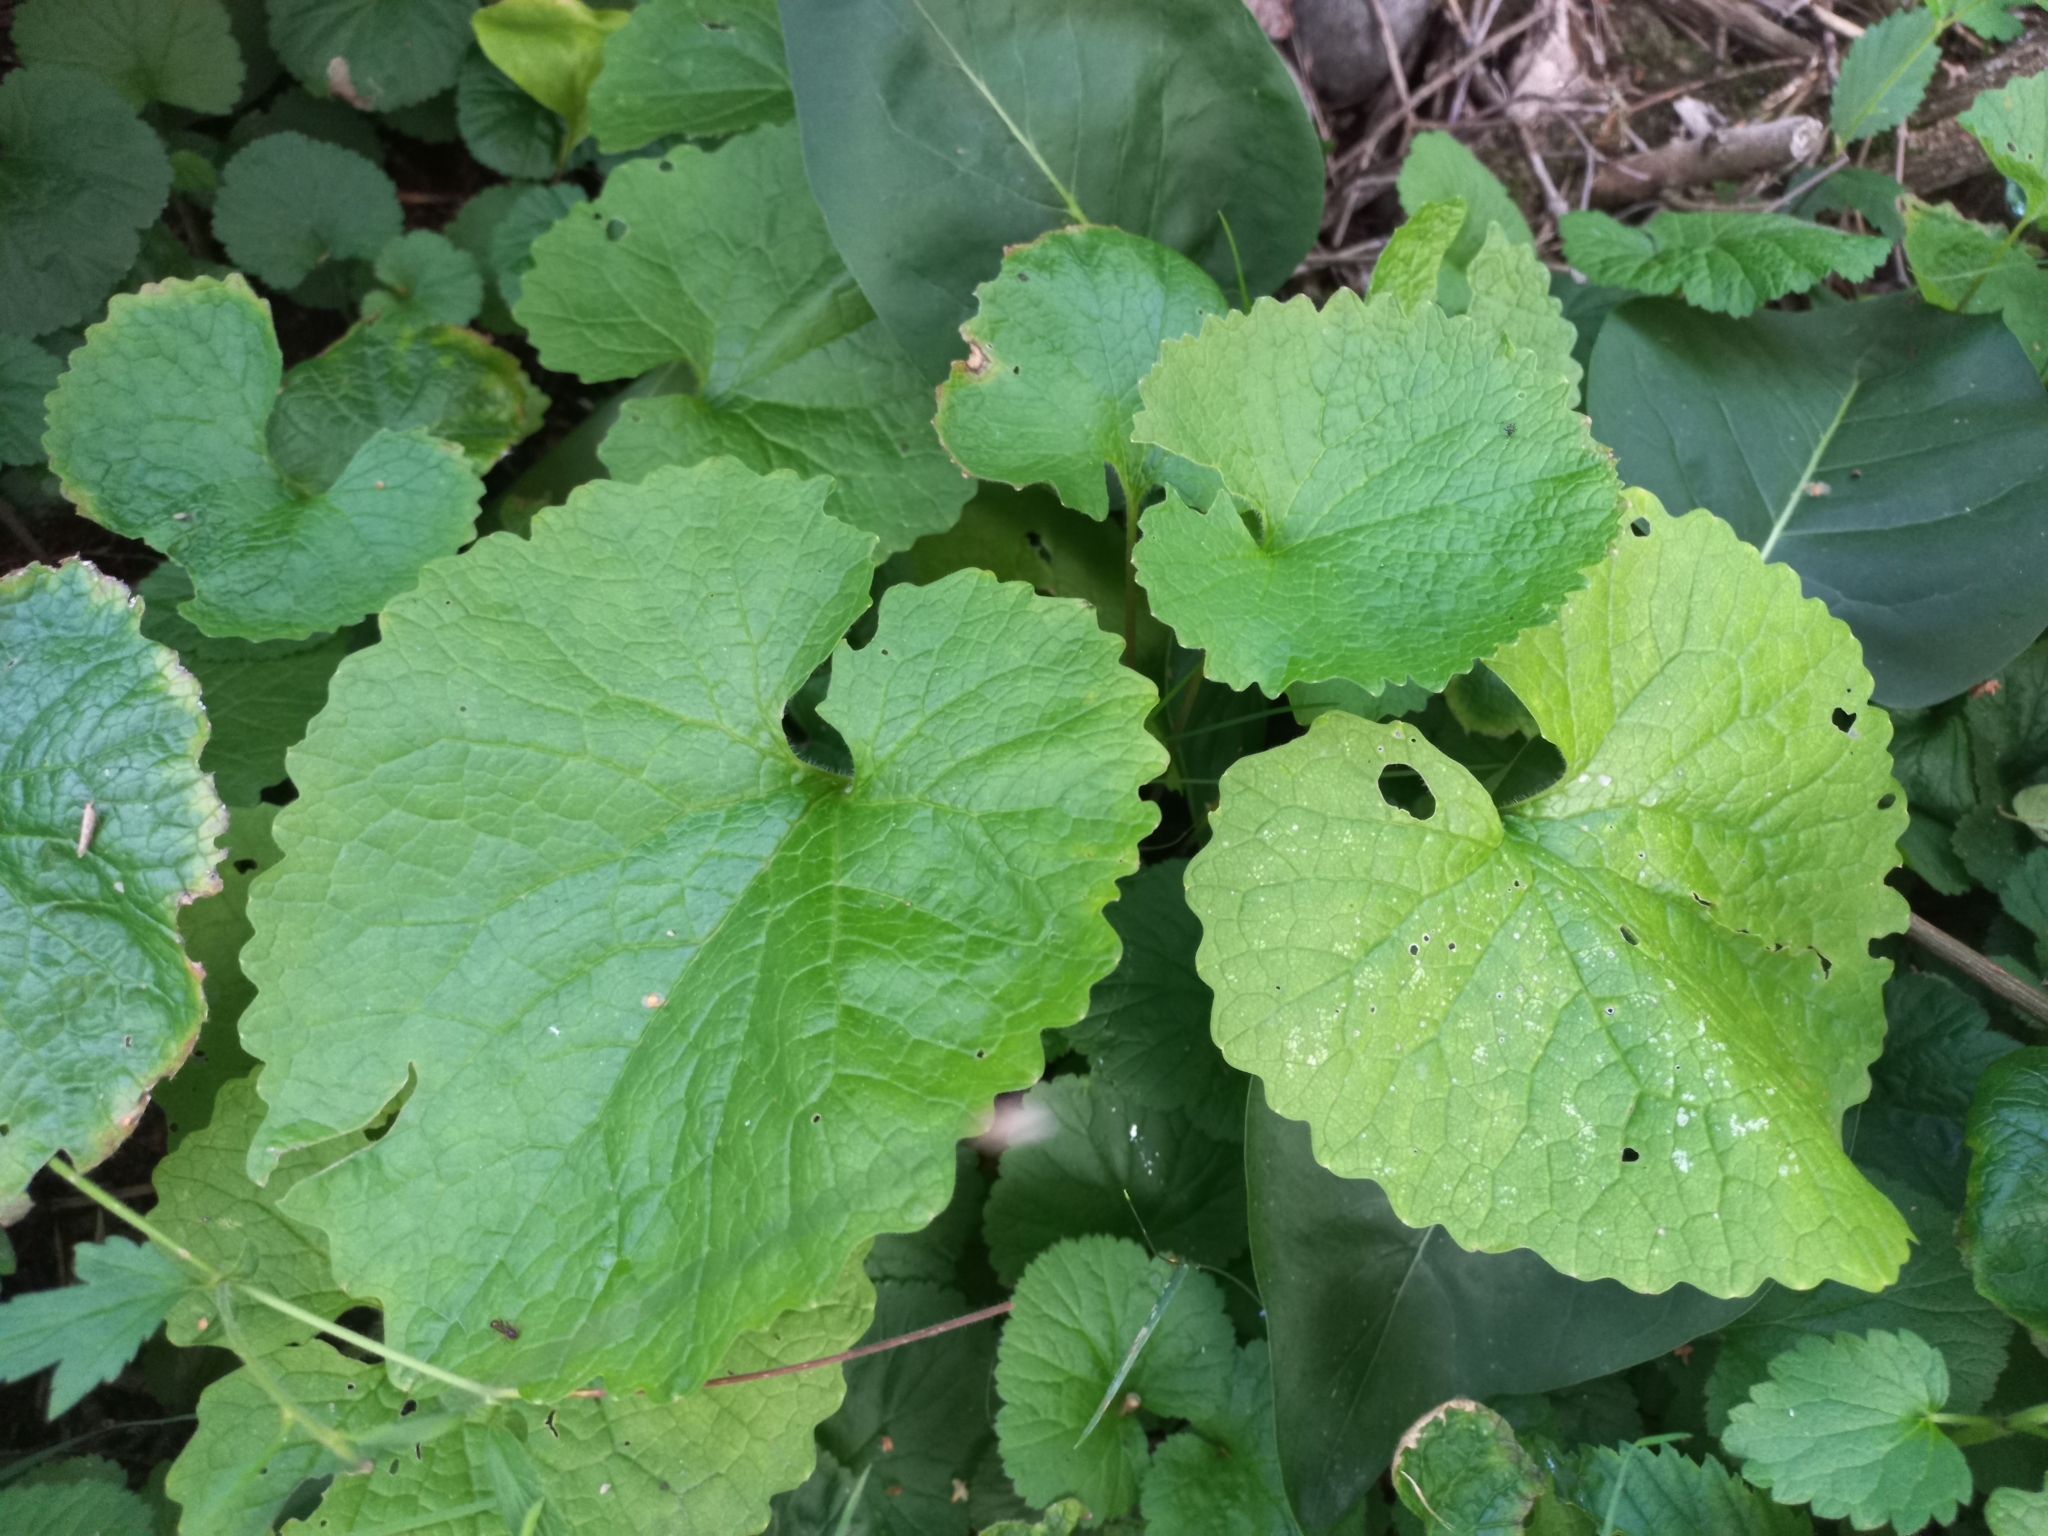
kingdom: Plantae
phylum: Tracheophyta
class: Magnoliopsida
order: Brassicales
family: Brassicaceae
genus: Alliaria
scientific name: Alliaria petiolata
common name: Garlic mustard
